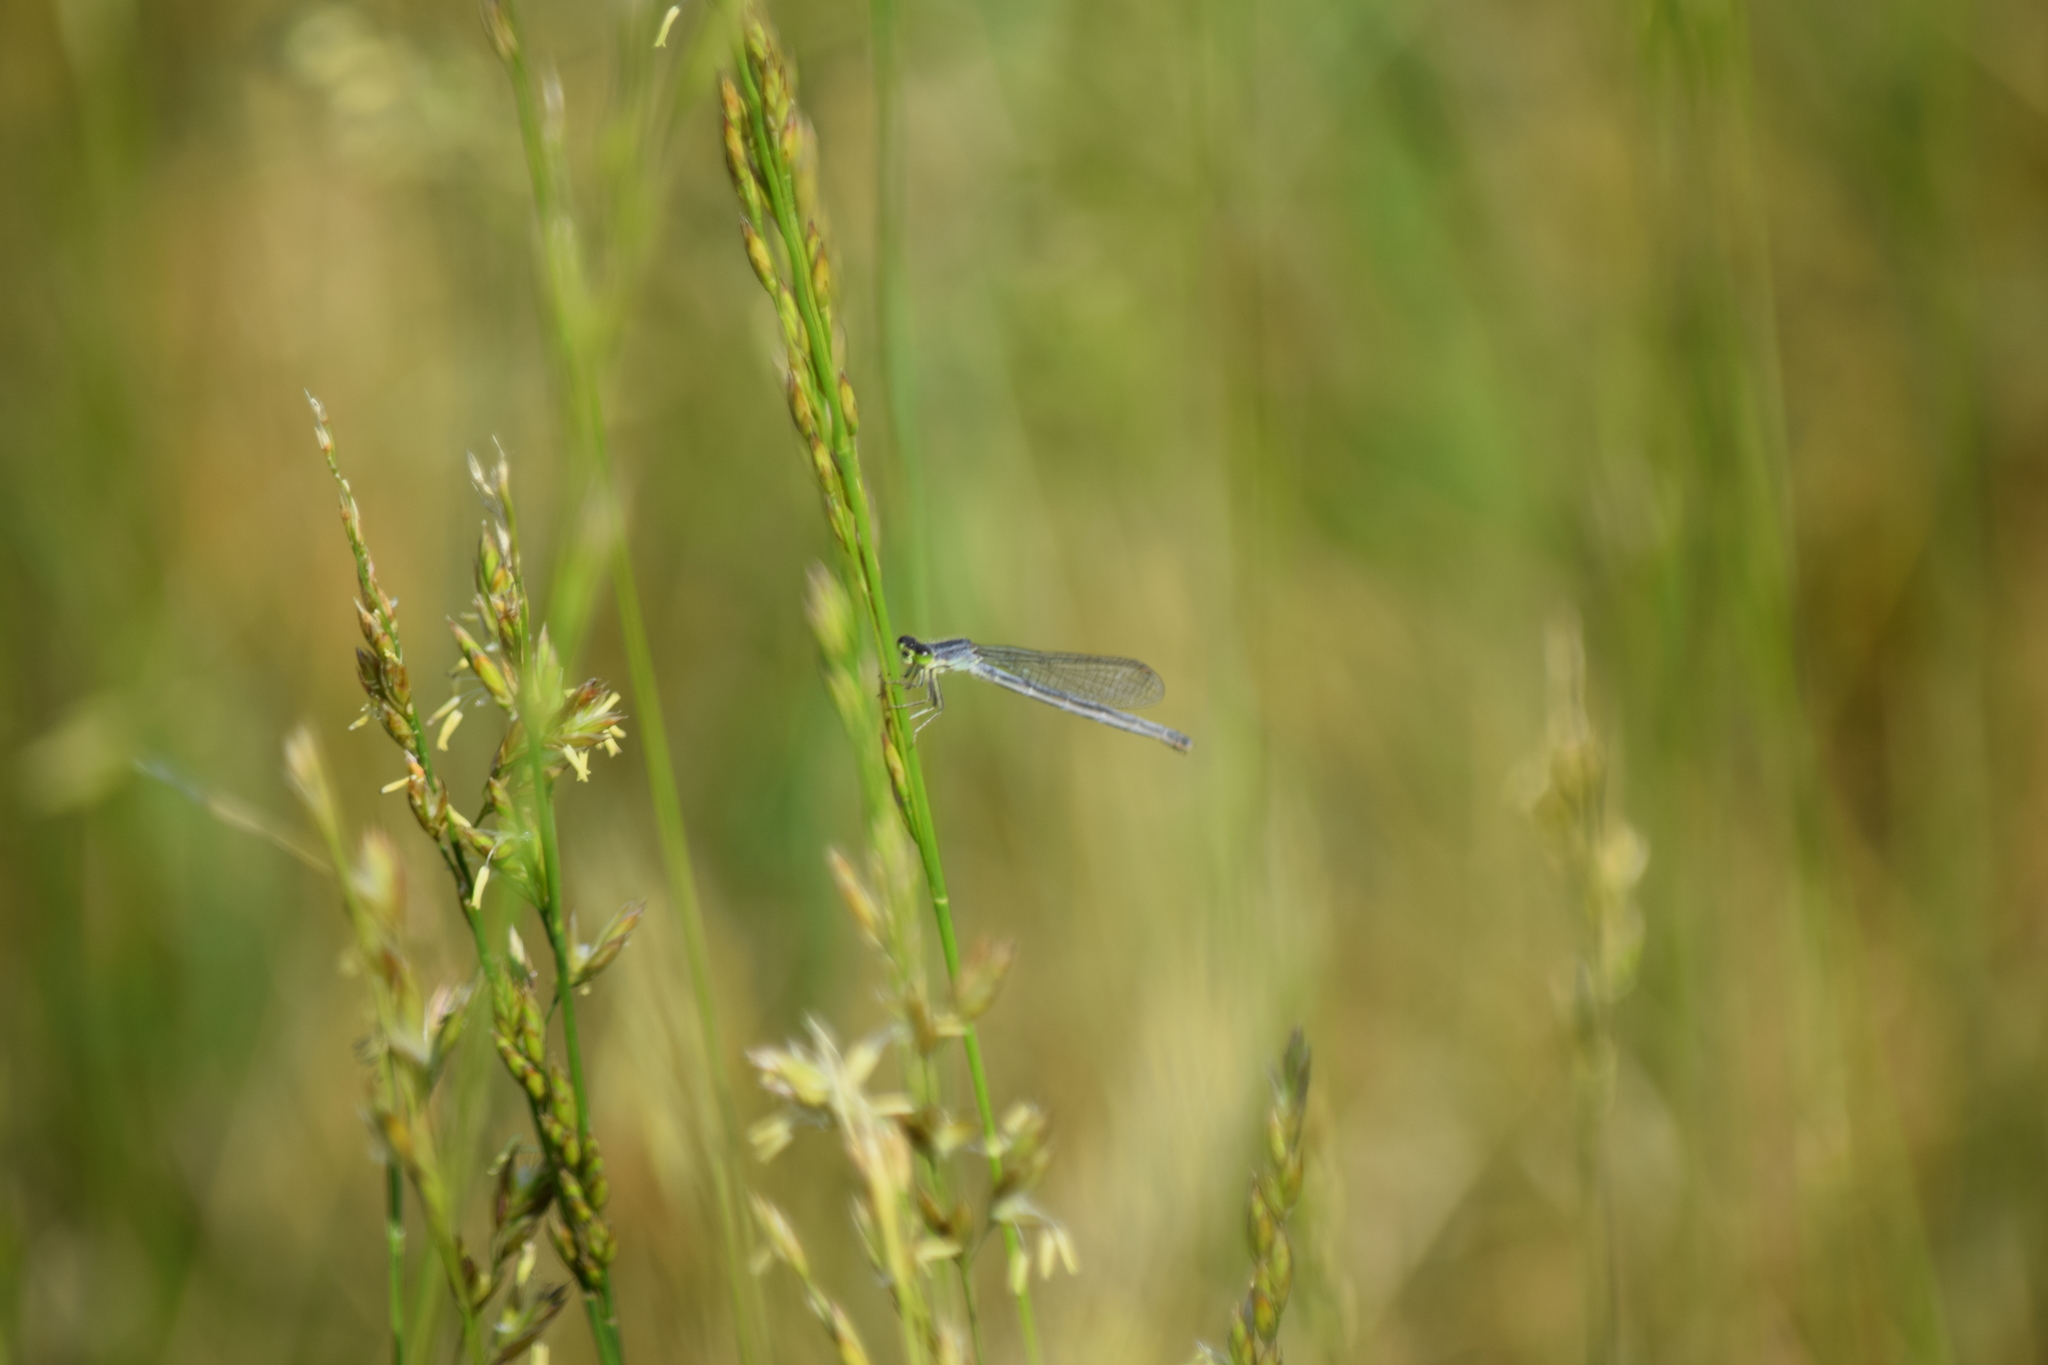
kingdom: Animalia
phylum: Arthropoda
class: Insecta
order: Odonata
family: Coenagrionidae
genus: Ischnura
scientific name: Ischnura verticalis
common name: Eastern forktail
